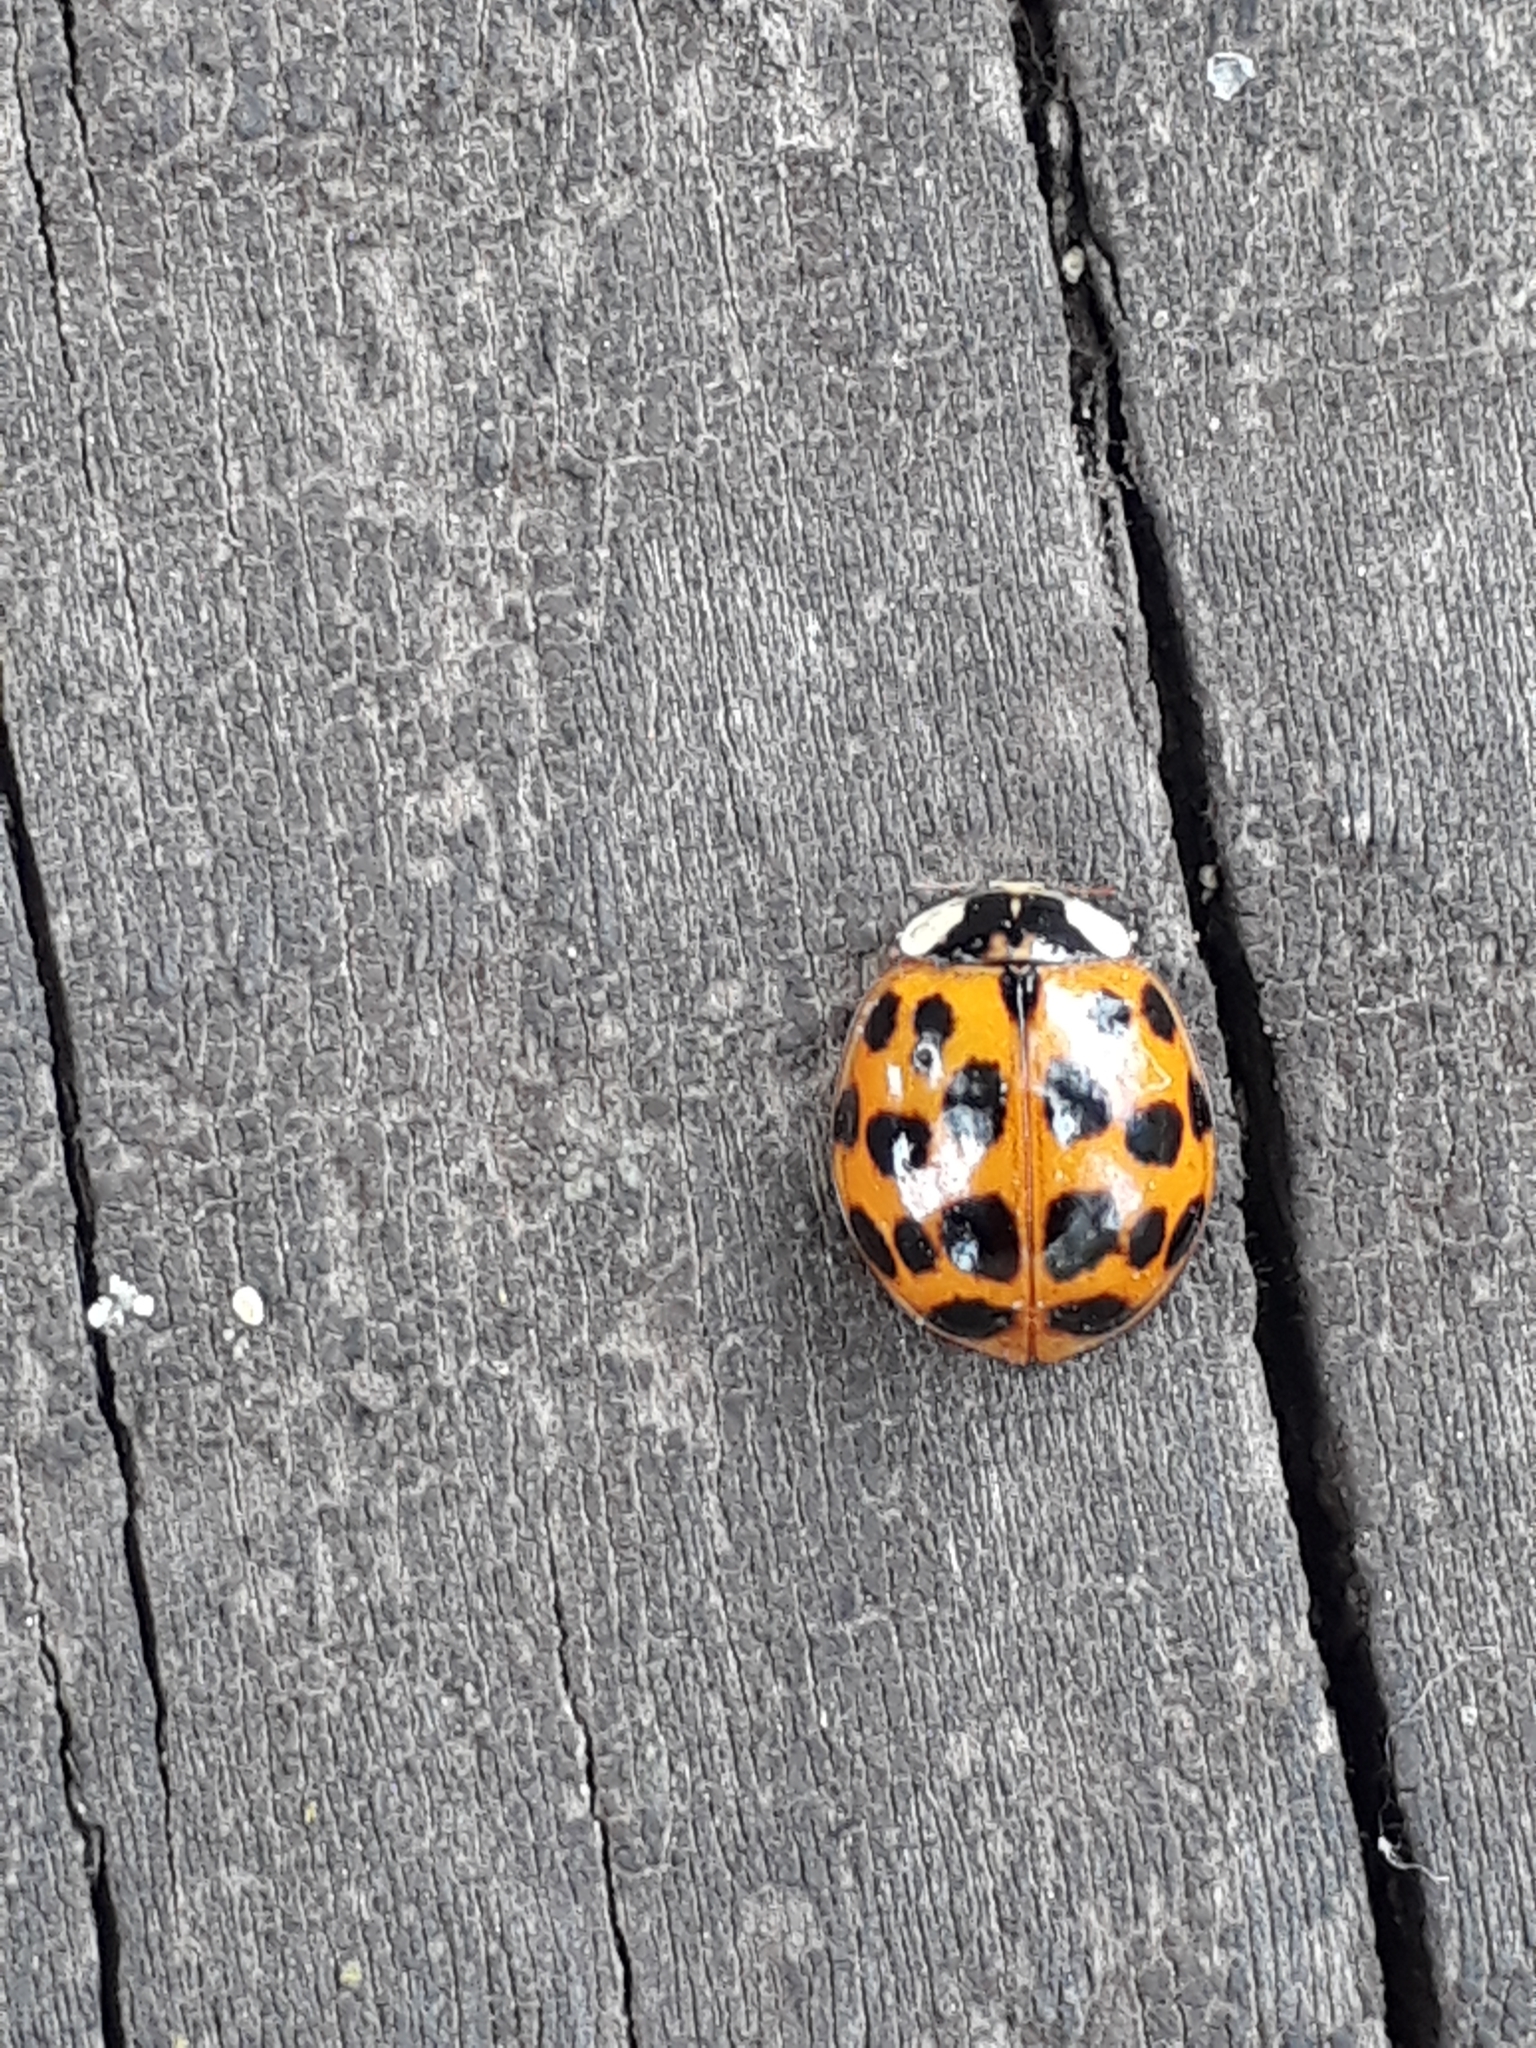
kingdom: Animalia
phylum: Arthropoda
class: Insecta
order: Coleoptera
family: Coccinellidae
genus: Harmonia
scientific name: Harmonia axyridis
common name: Harlequin ladybird
